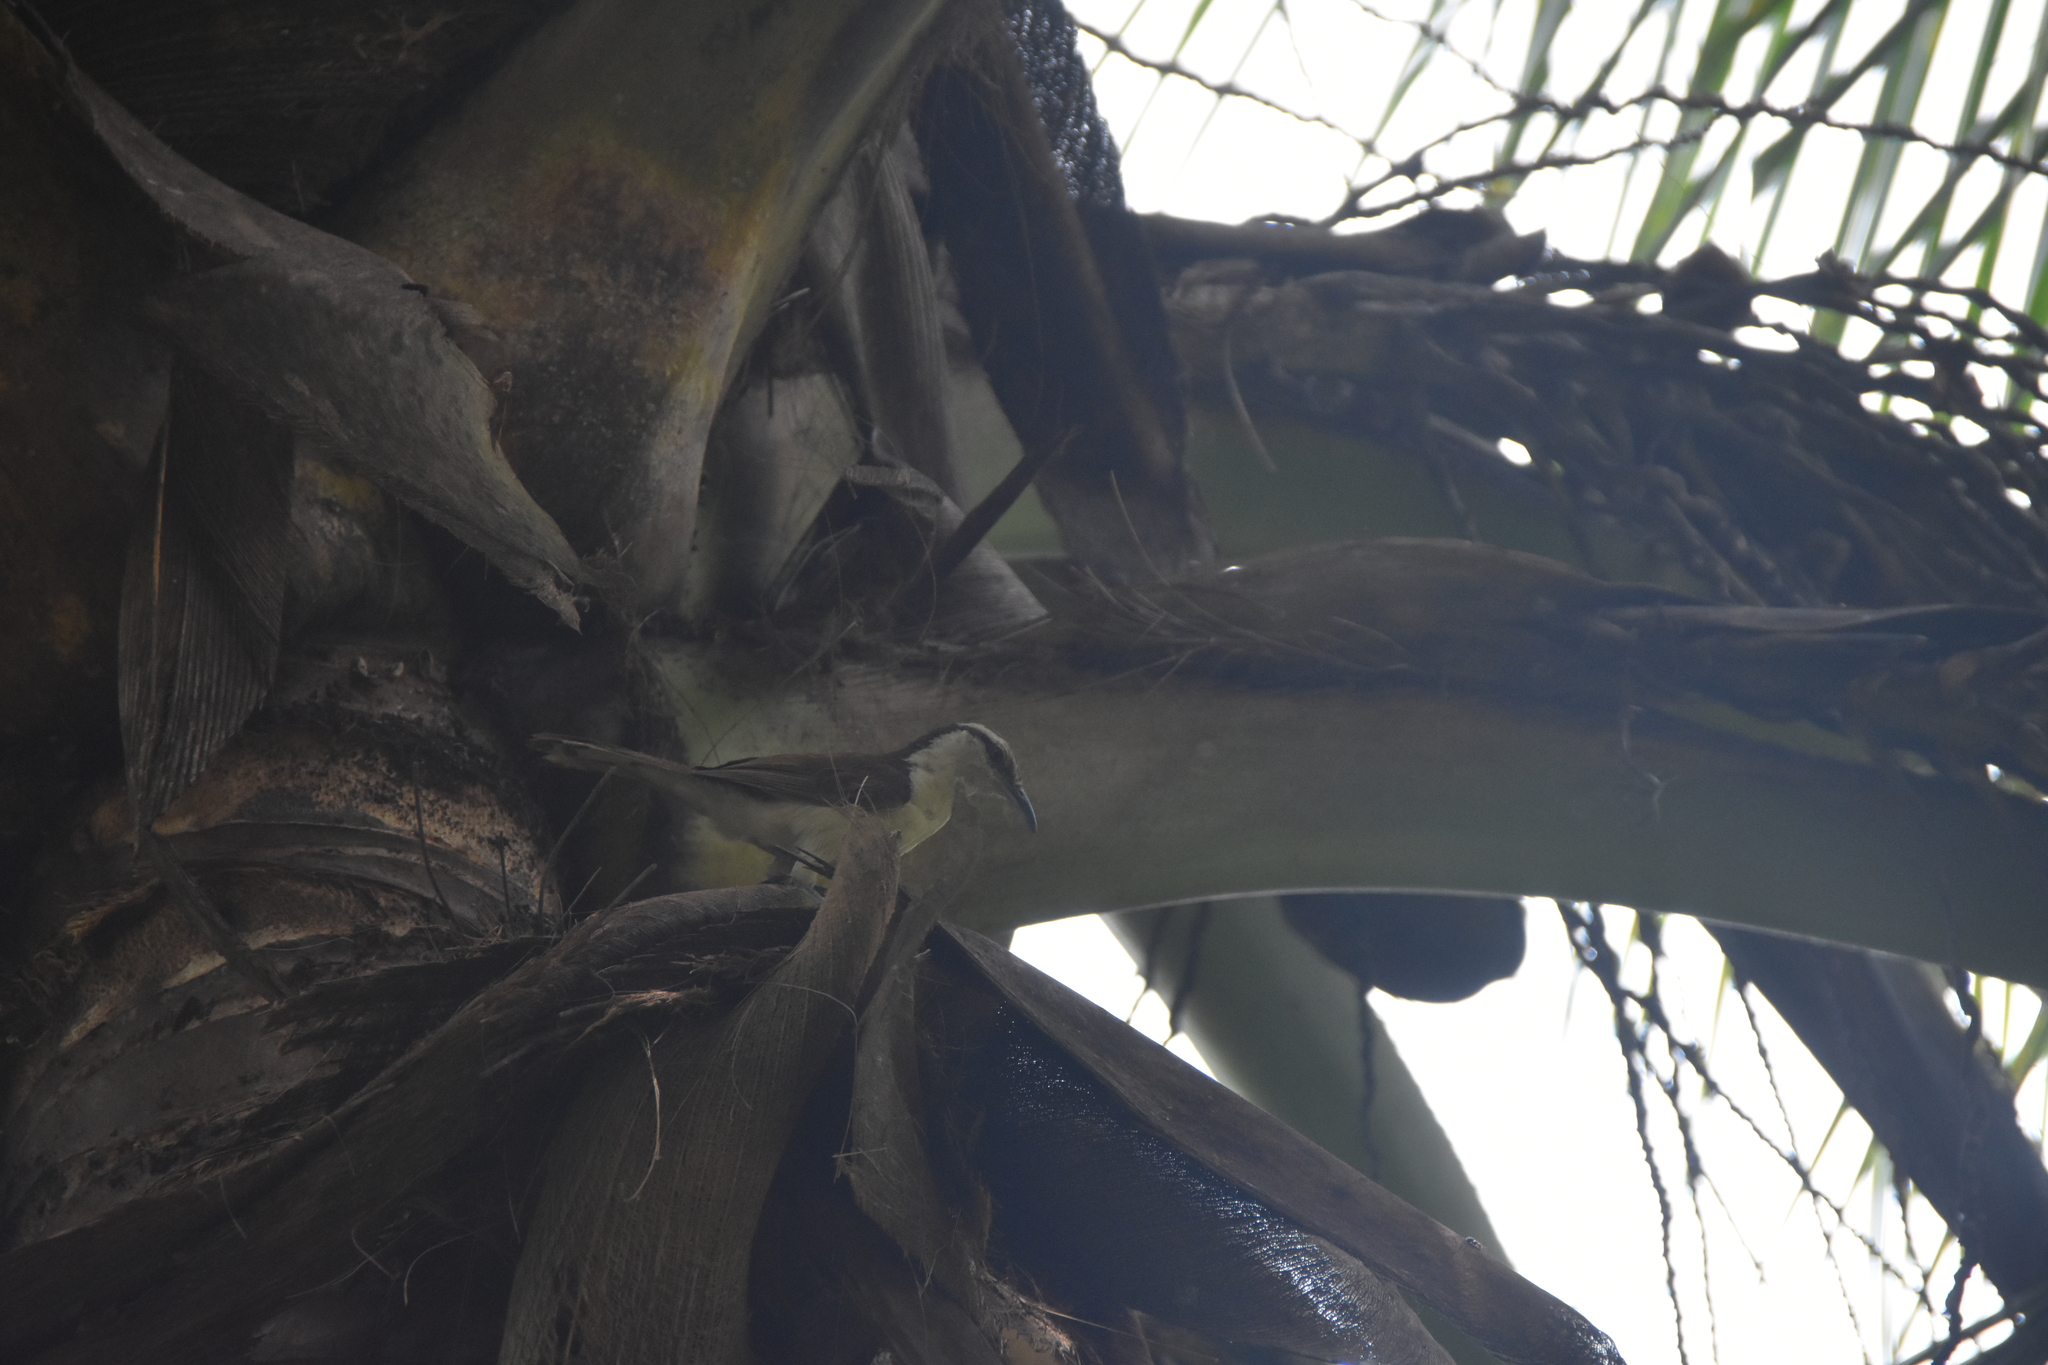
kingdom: Animalia
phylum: Chordata
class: Aves
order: Passeriformes
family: Troglodytidae
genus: Campylorhynchus
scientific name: Campylorhynchus griseus
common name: Bicolored wren
